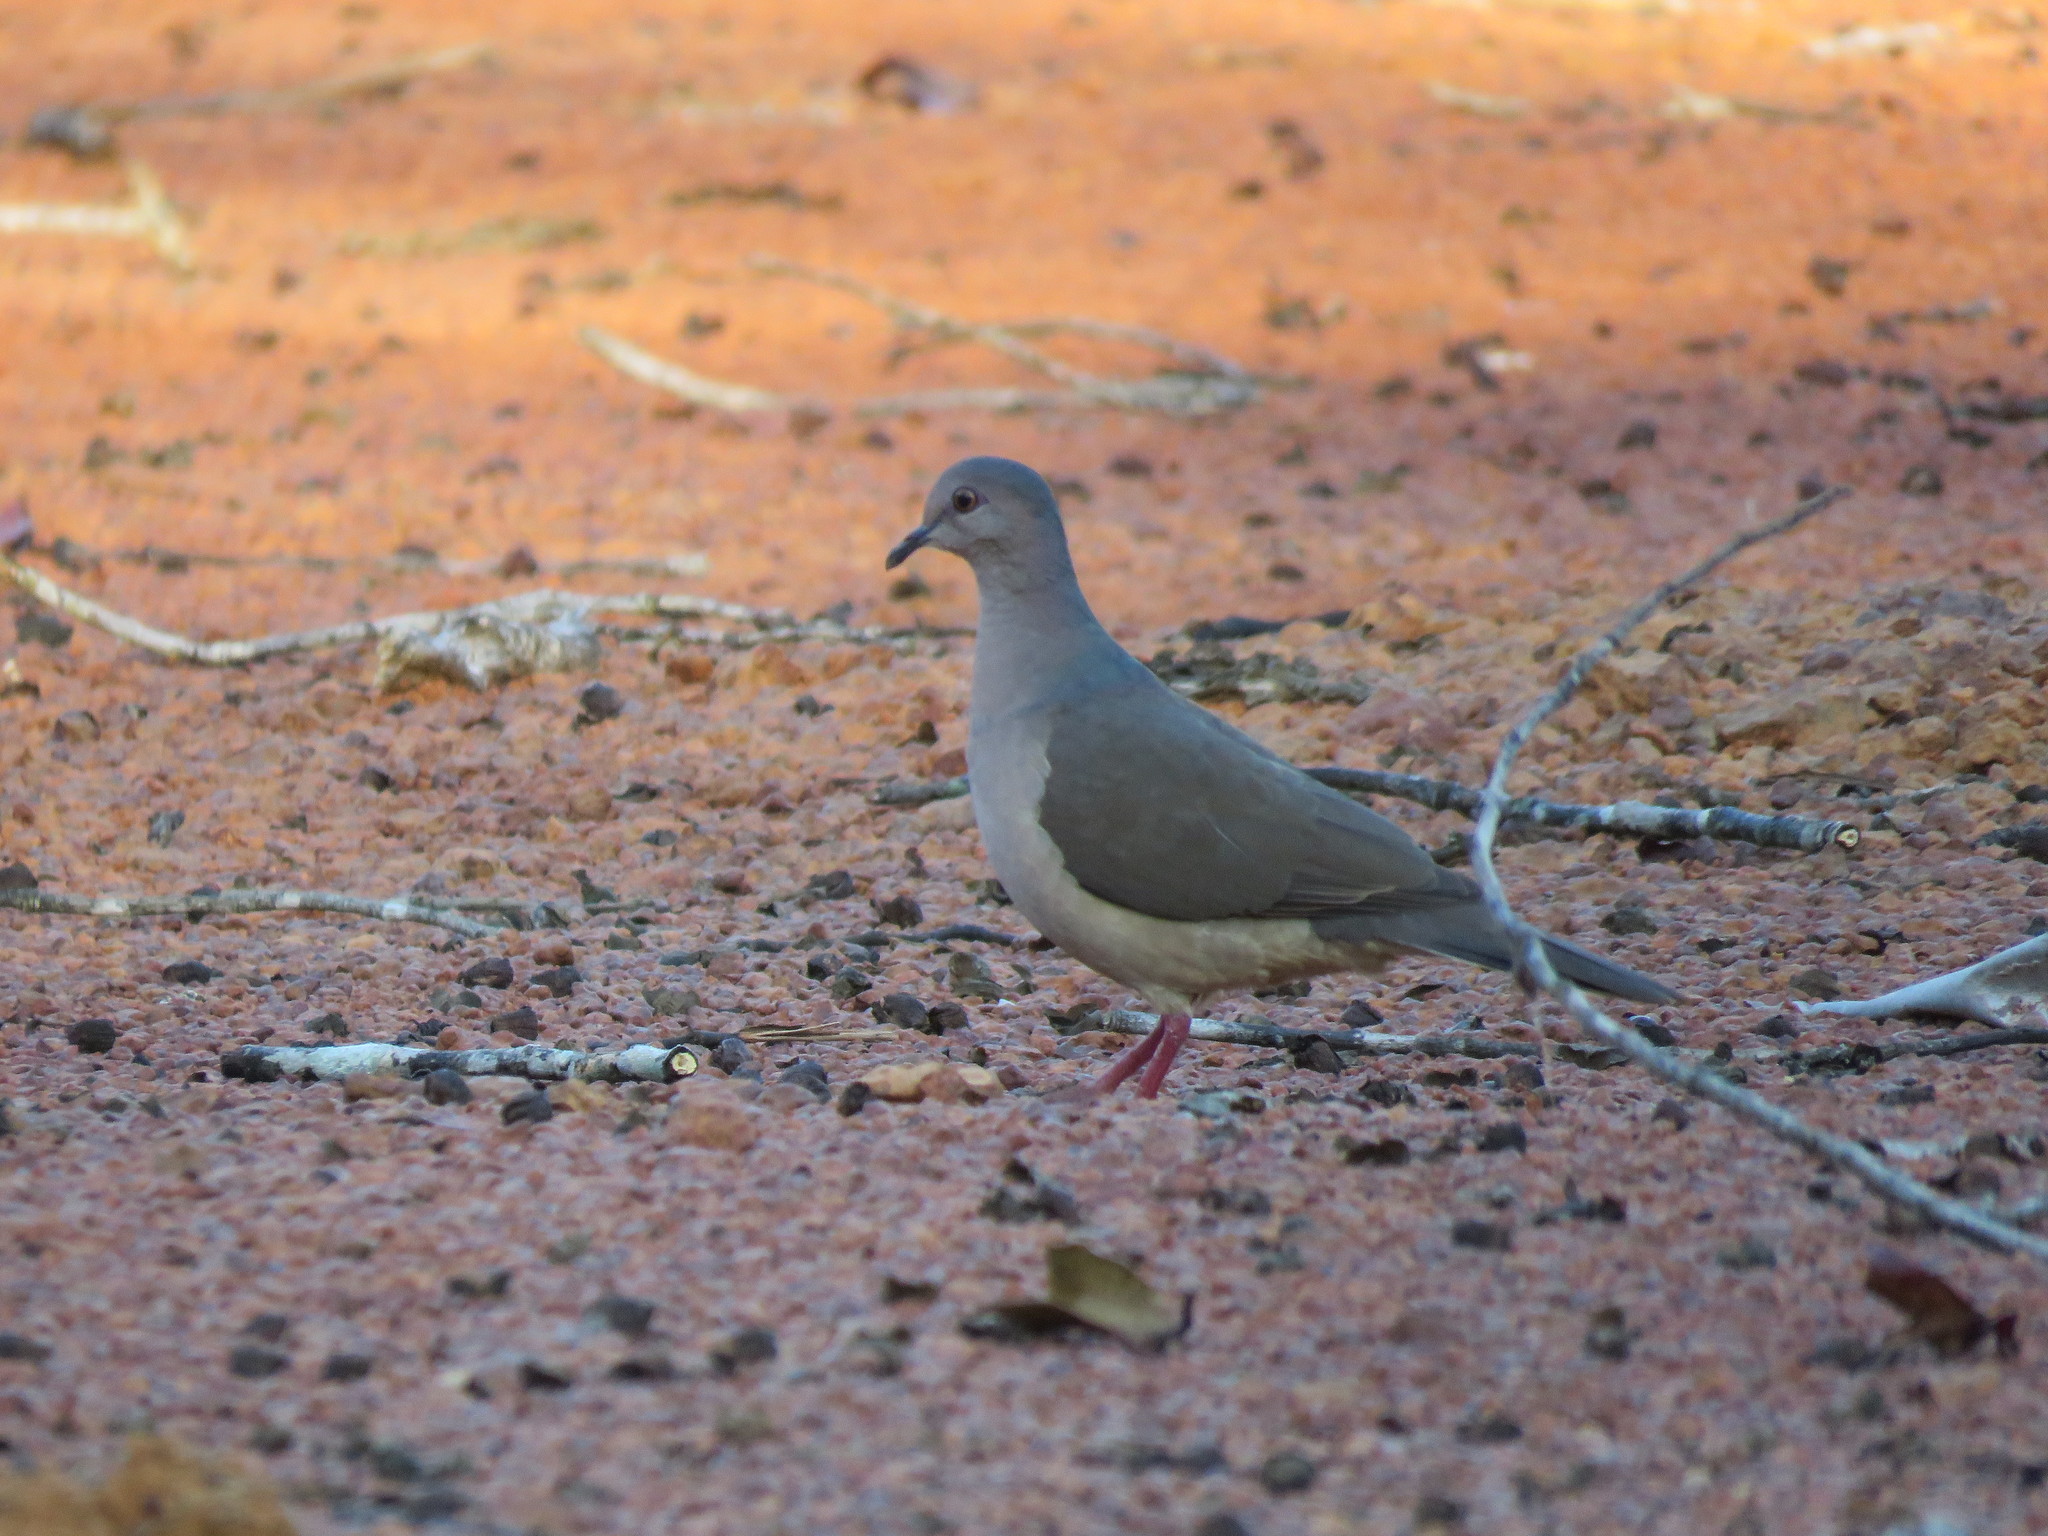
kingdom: Animalia
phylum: Chordata
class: Aves
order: Columbiformes
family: Columbidae
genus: Leptotila
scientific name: Leptotila verreauxi
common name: White-tipped dove
